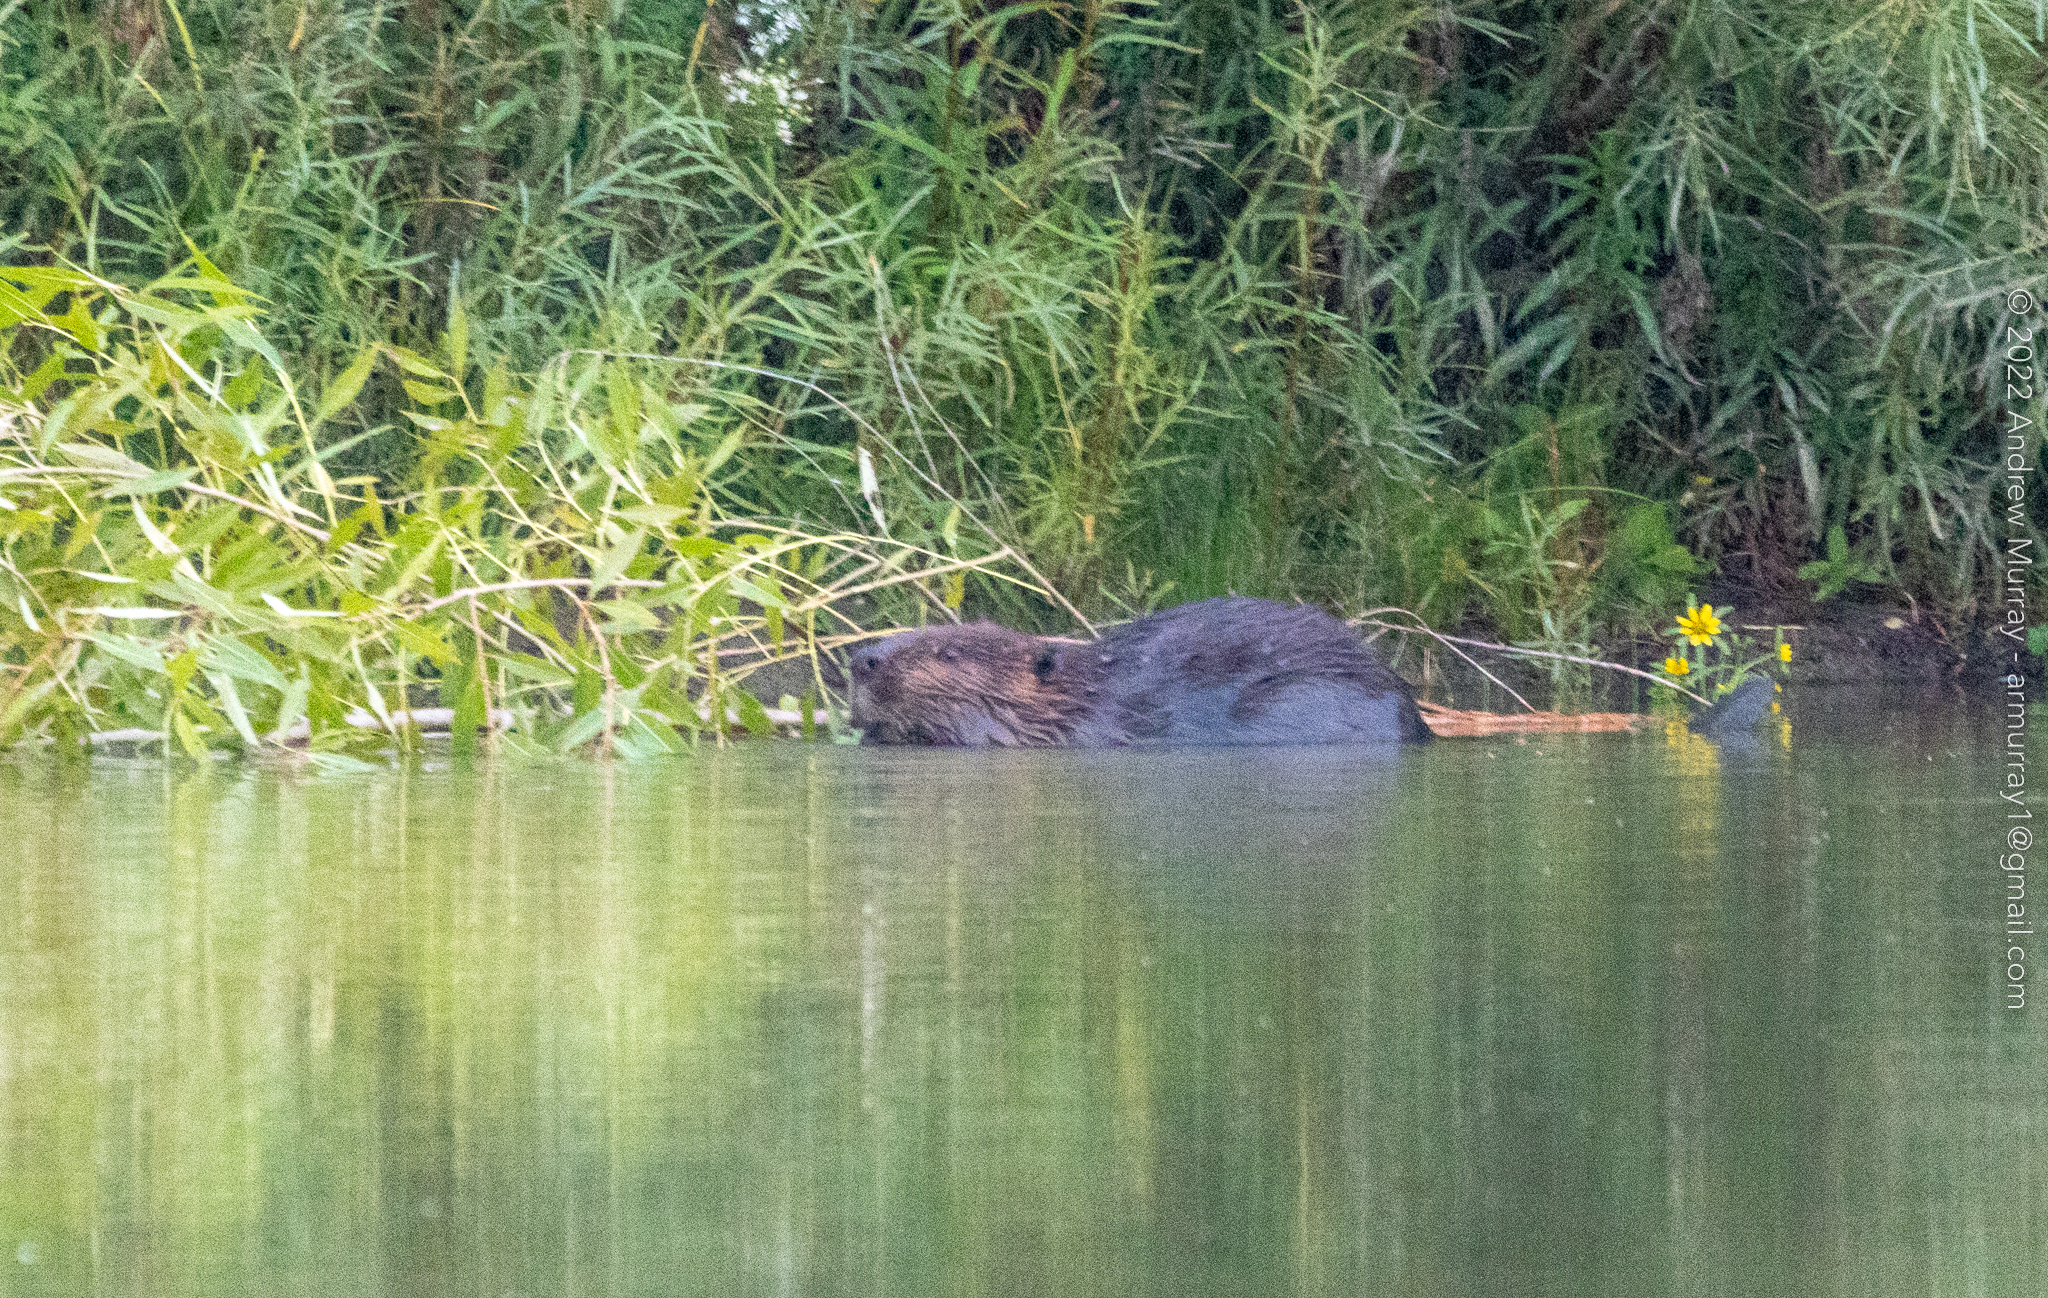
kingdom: Animalia
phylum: Chordata
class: Mammalia
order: Rodentia
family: Castoridae
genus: Castor
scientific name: Castor canadensis
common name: American beaver
